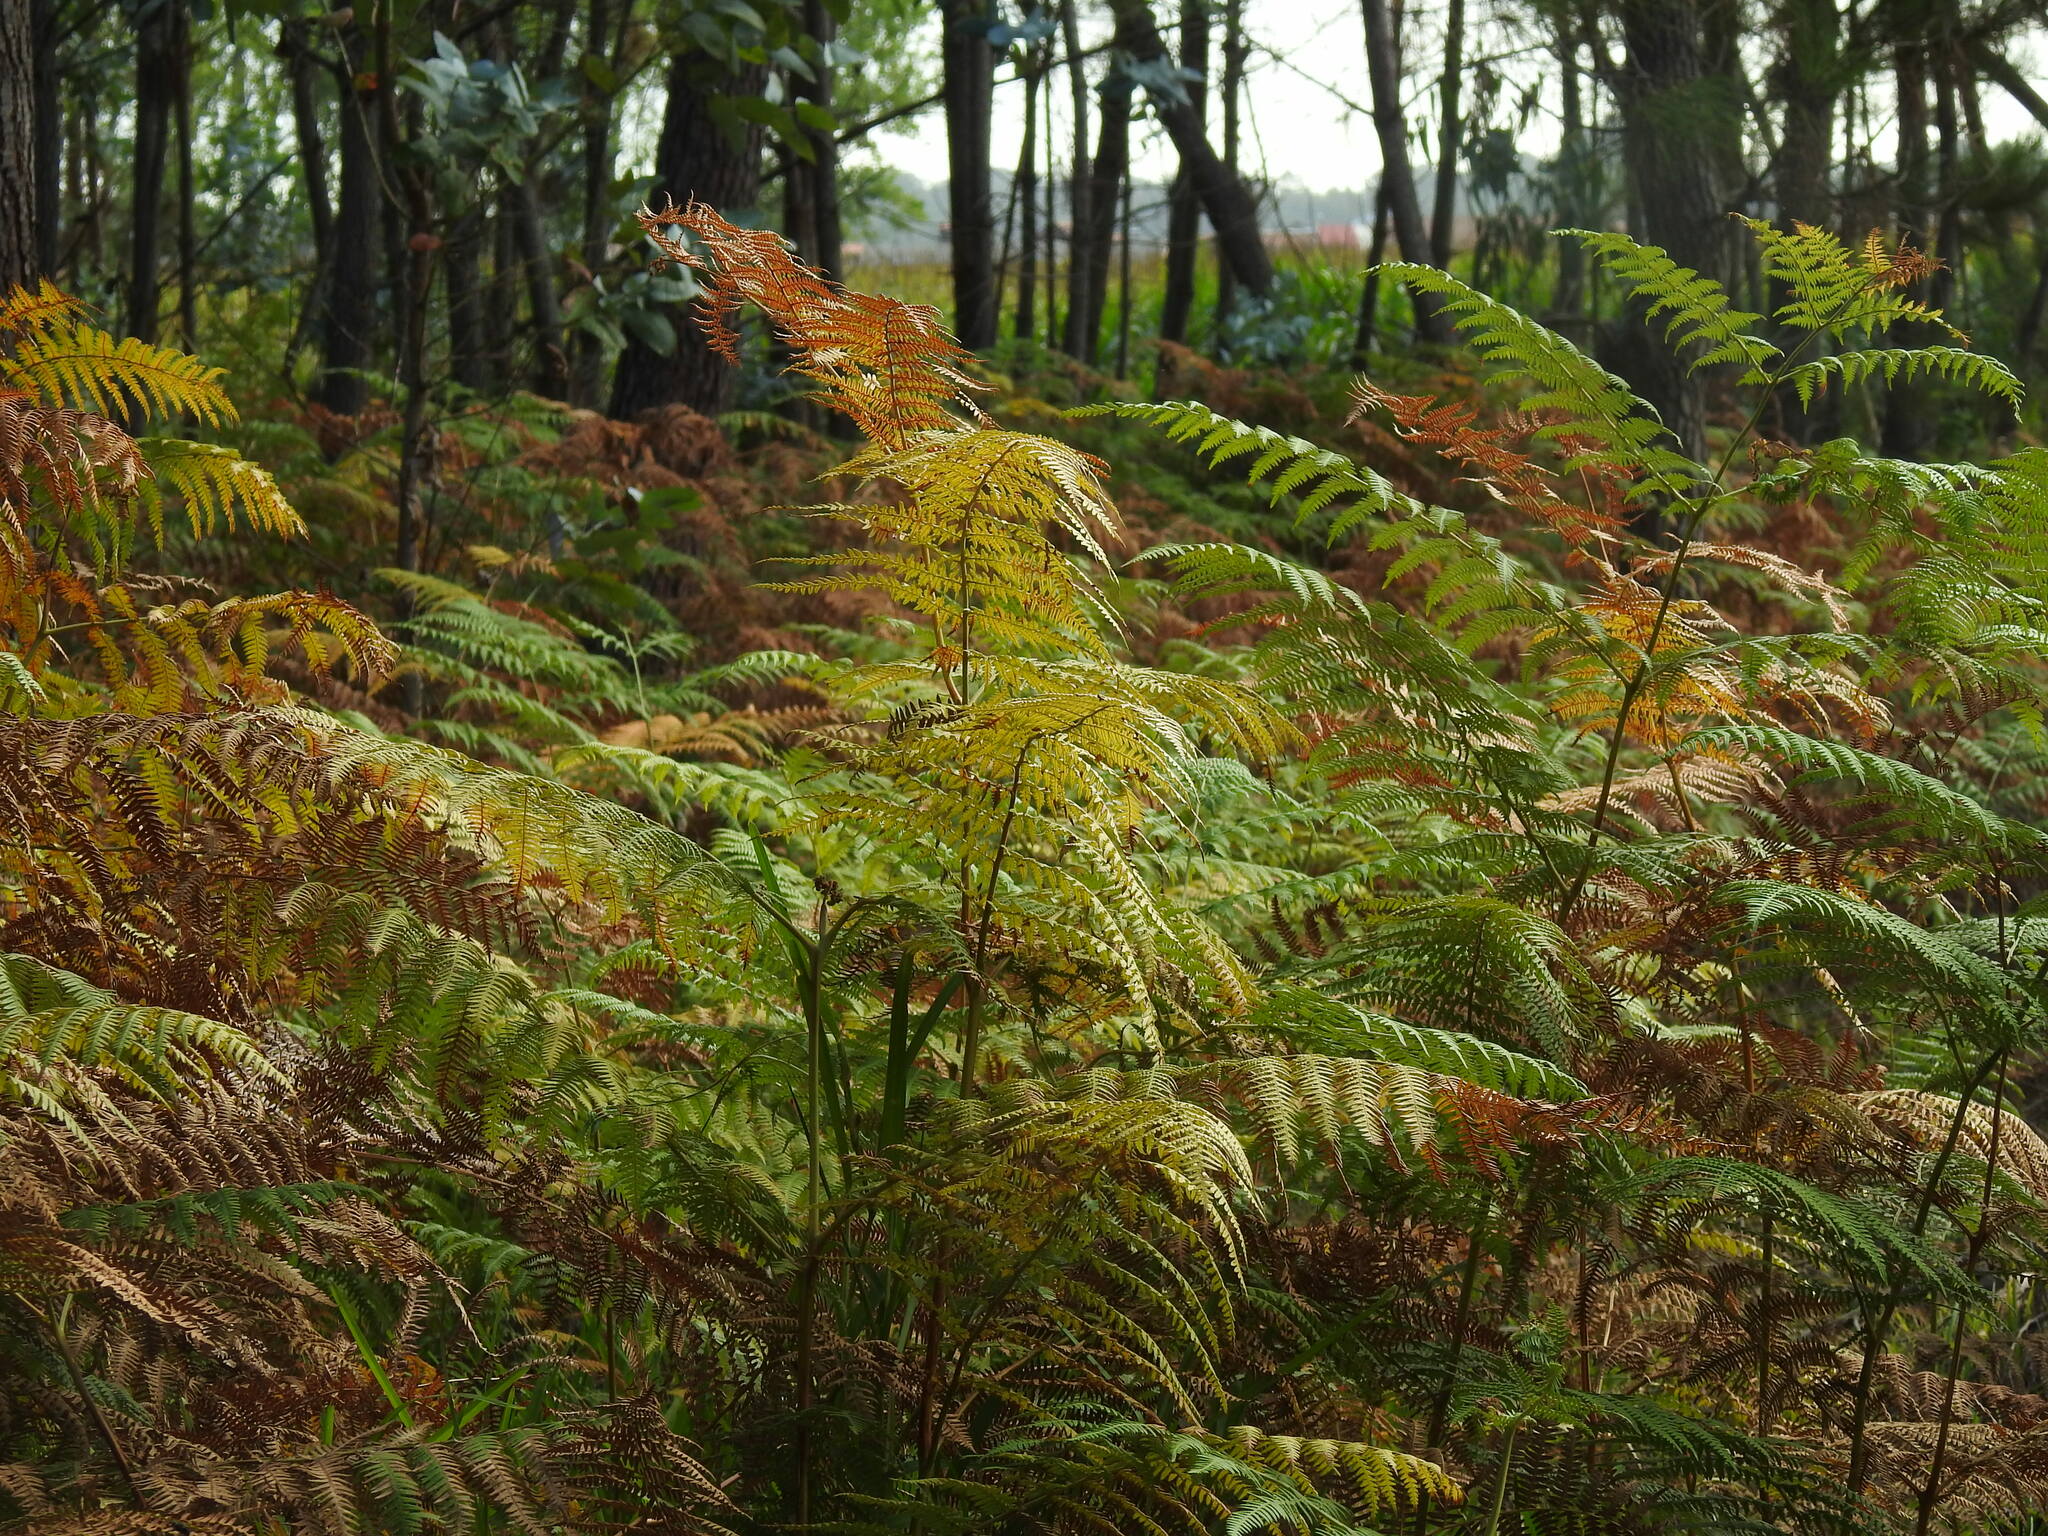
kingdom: Plantae
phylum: Tracheophyta
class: Polypodiopsida
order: Polypodiales
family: Dennstaedtiaceae
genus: Pteridium
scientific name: Pteridium aquilinum
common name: Bracken
